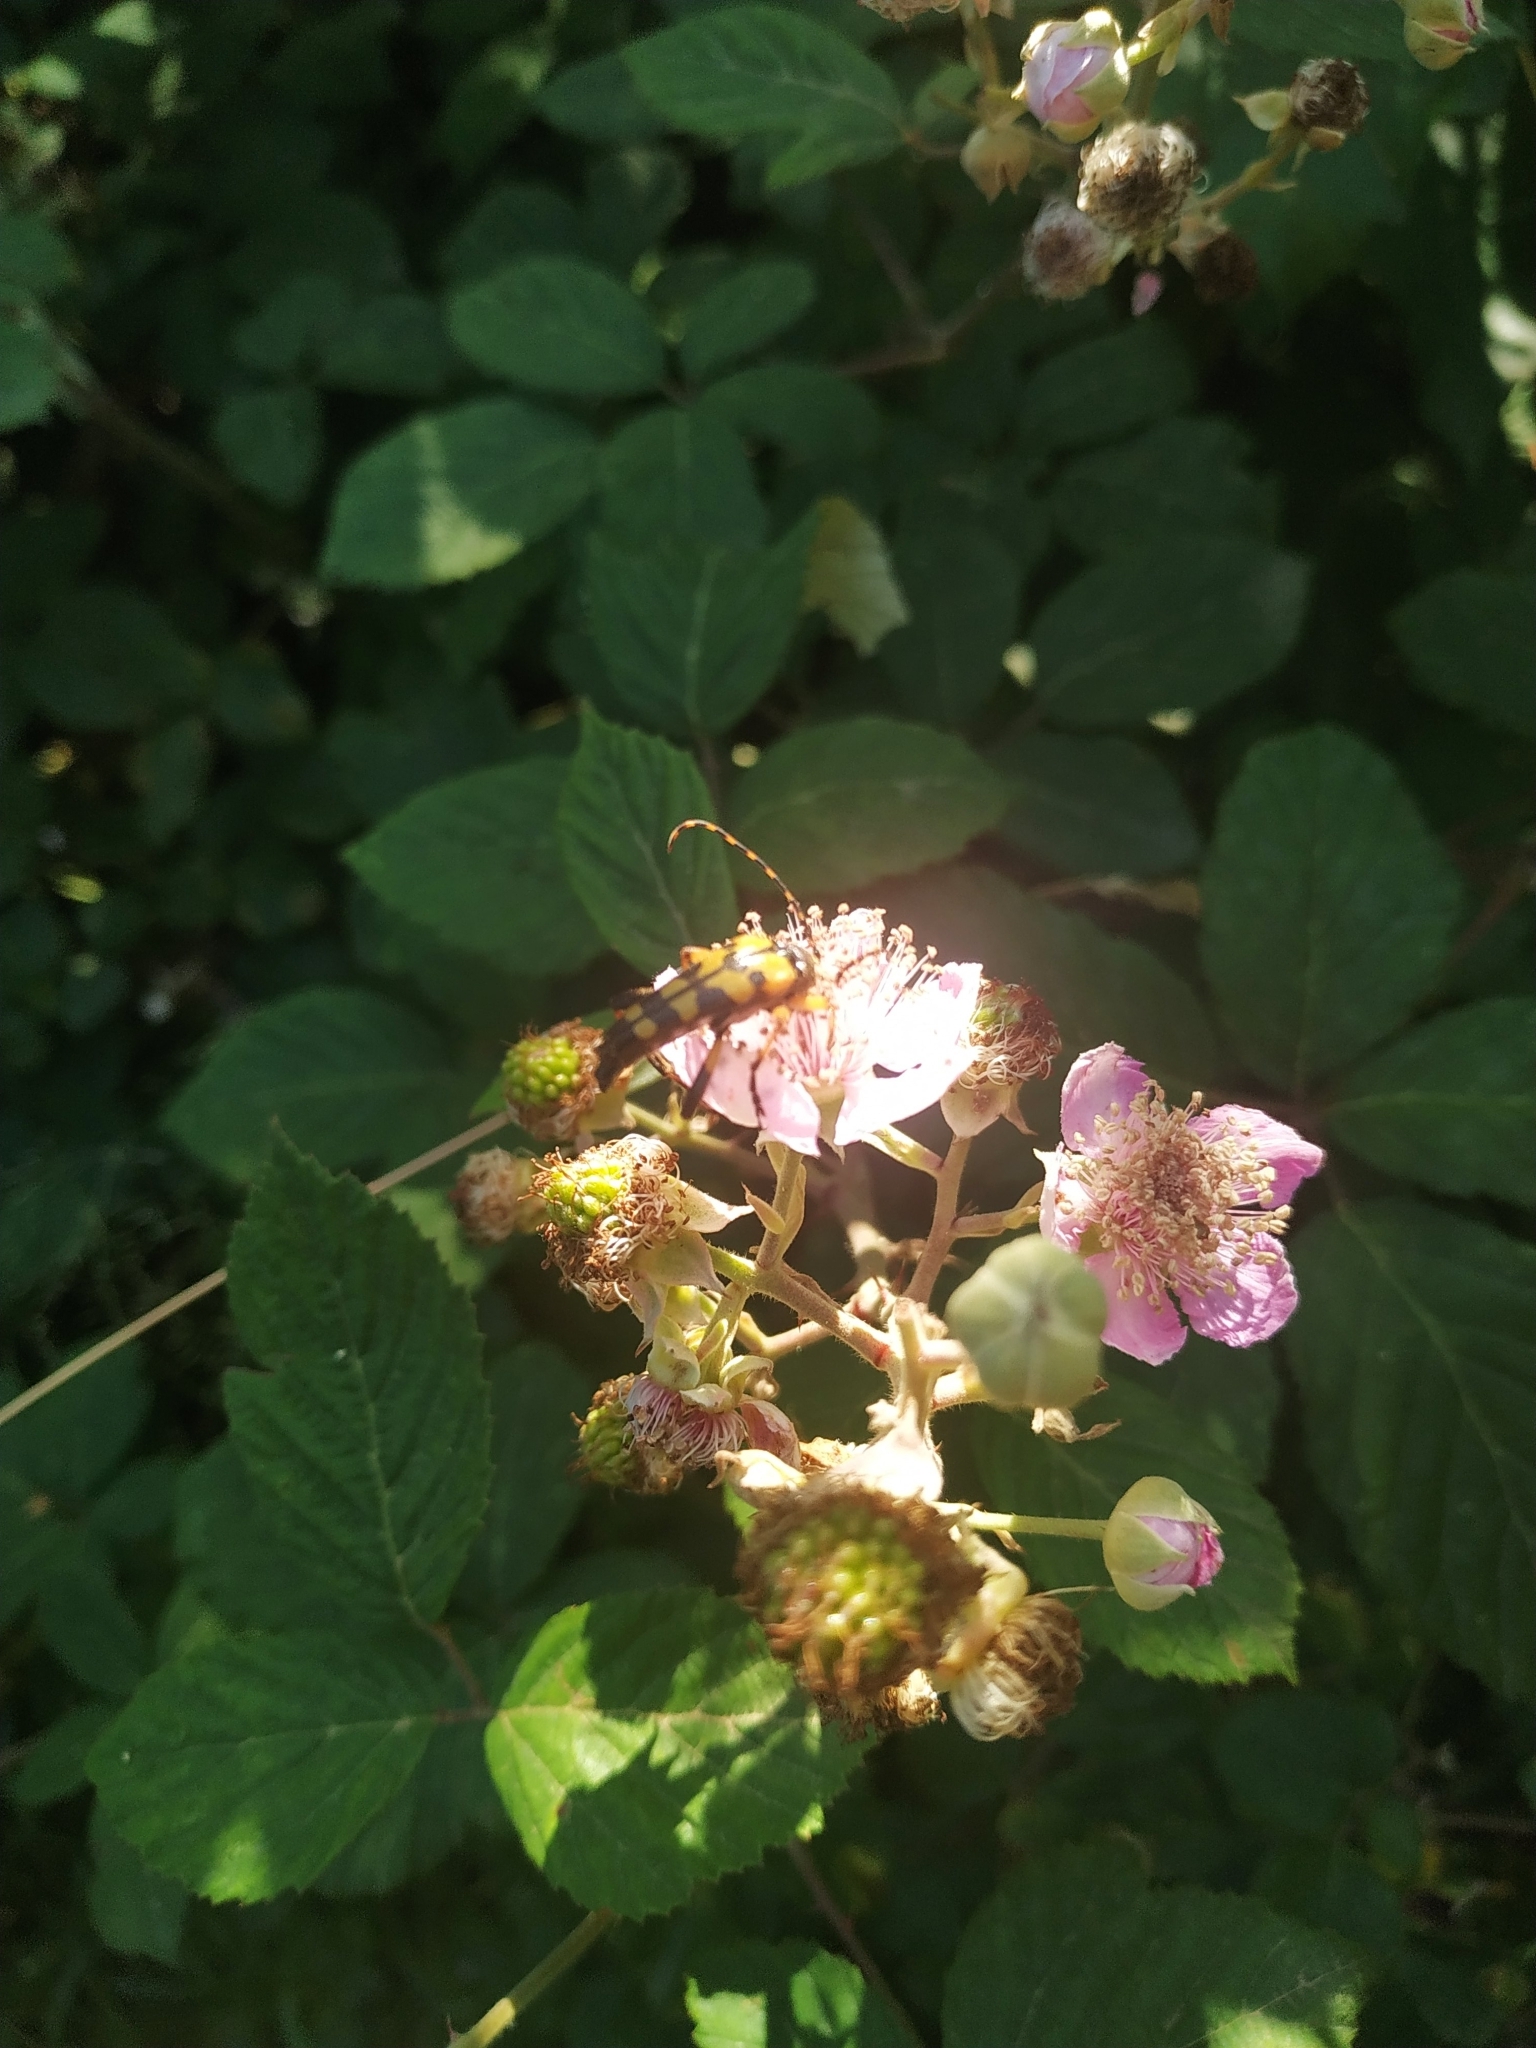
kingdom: Animalia
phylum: Arthropoda
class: Insecta
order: Coleoptera
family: Cerambycidae
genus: Rutpela
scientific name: Rutpela maculata
